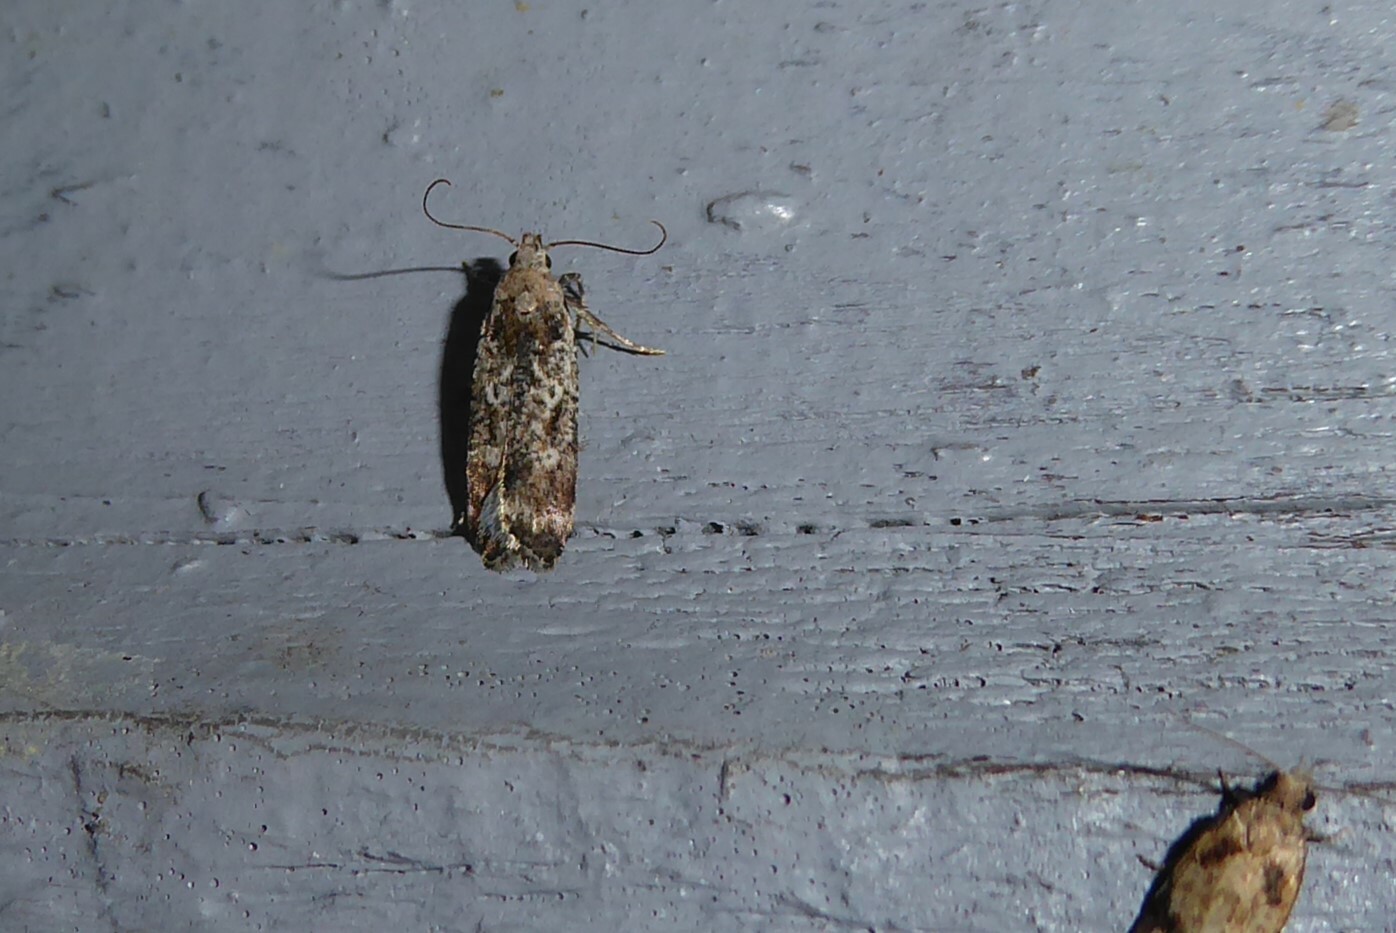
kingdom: Animalia
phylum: Arthropoda
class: Insecta
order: Lepidoptera
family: Gelechiidae
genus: Anisoplaca
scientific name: Anisoplaca achyrota
